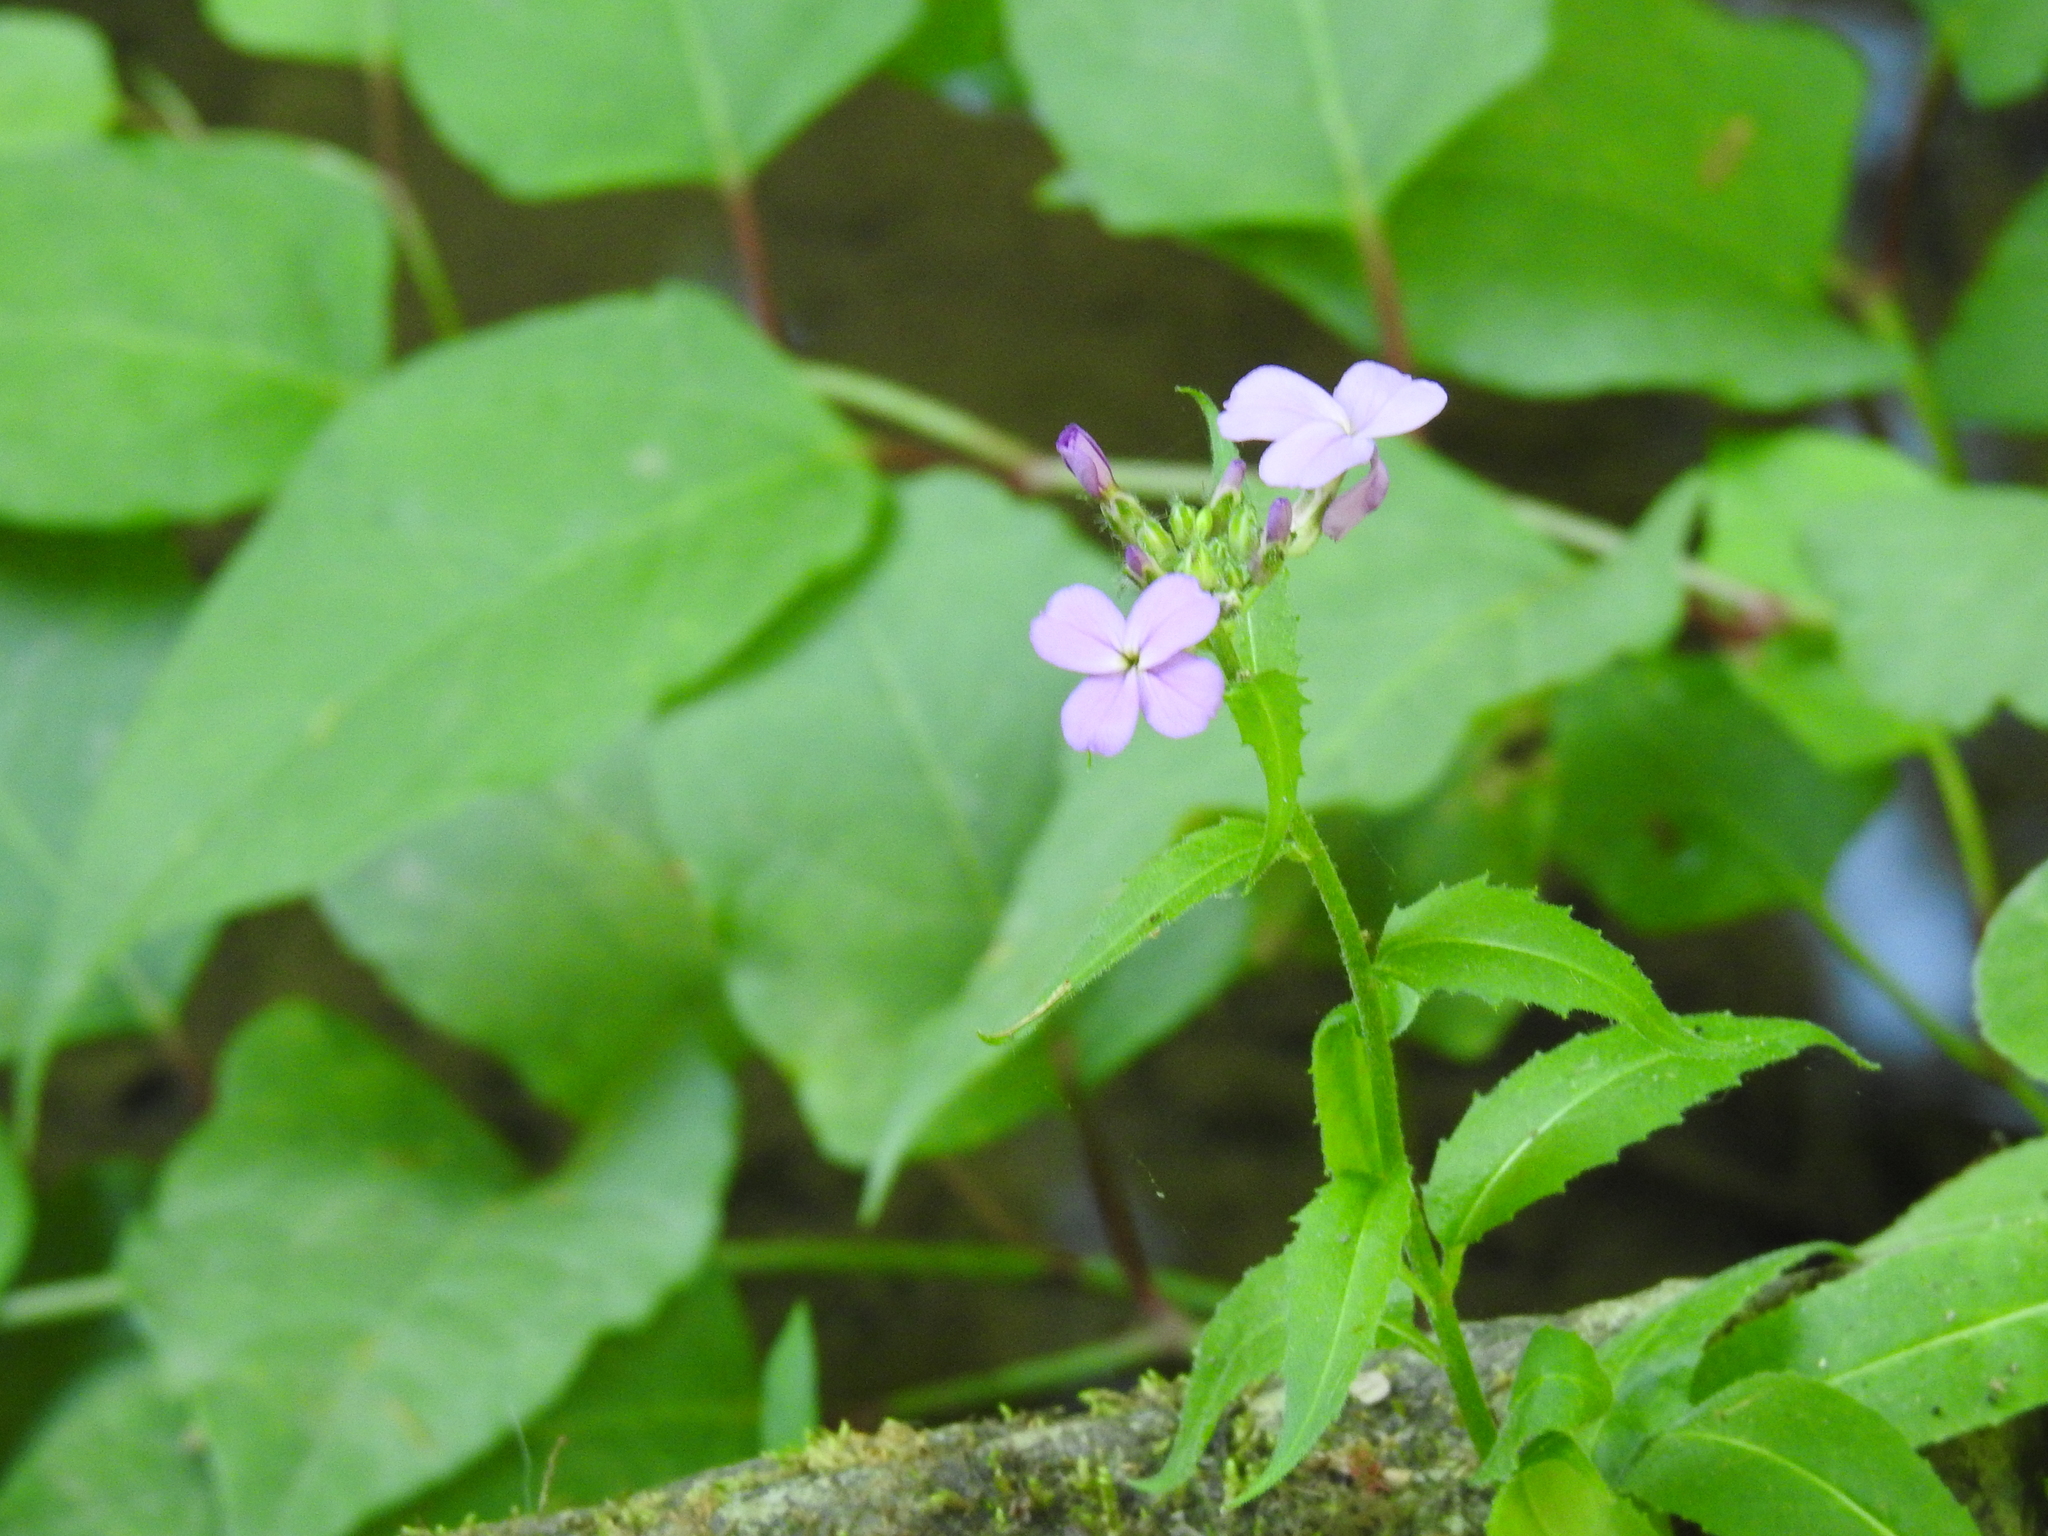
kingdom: Plantae
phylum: Tracheophyta
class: Magnoliopsida
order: Brassicales
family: Brassicaceae
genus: Hesperis
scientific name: Hesperis matronalis
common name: Dame's-violet
